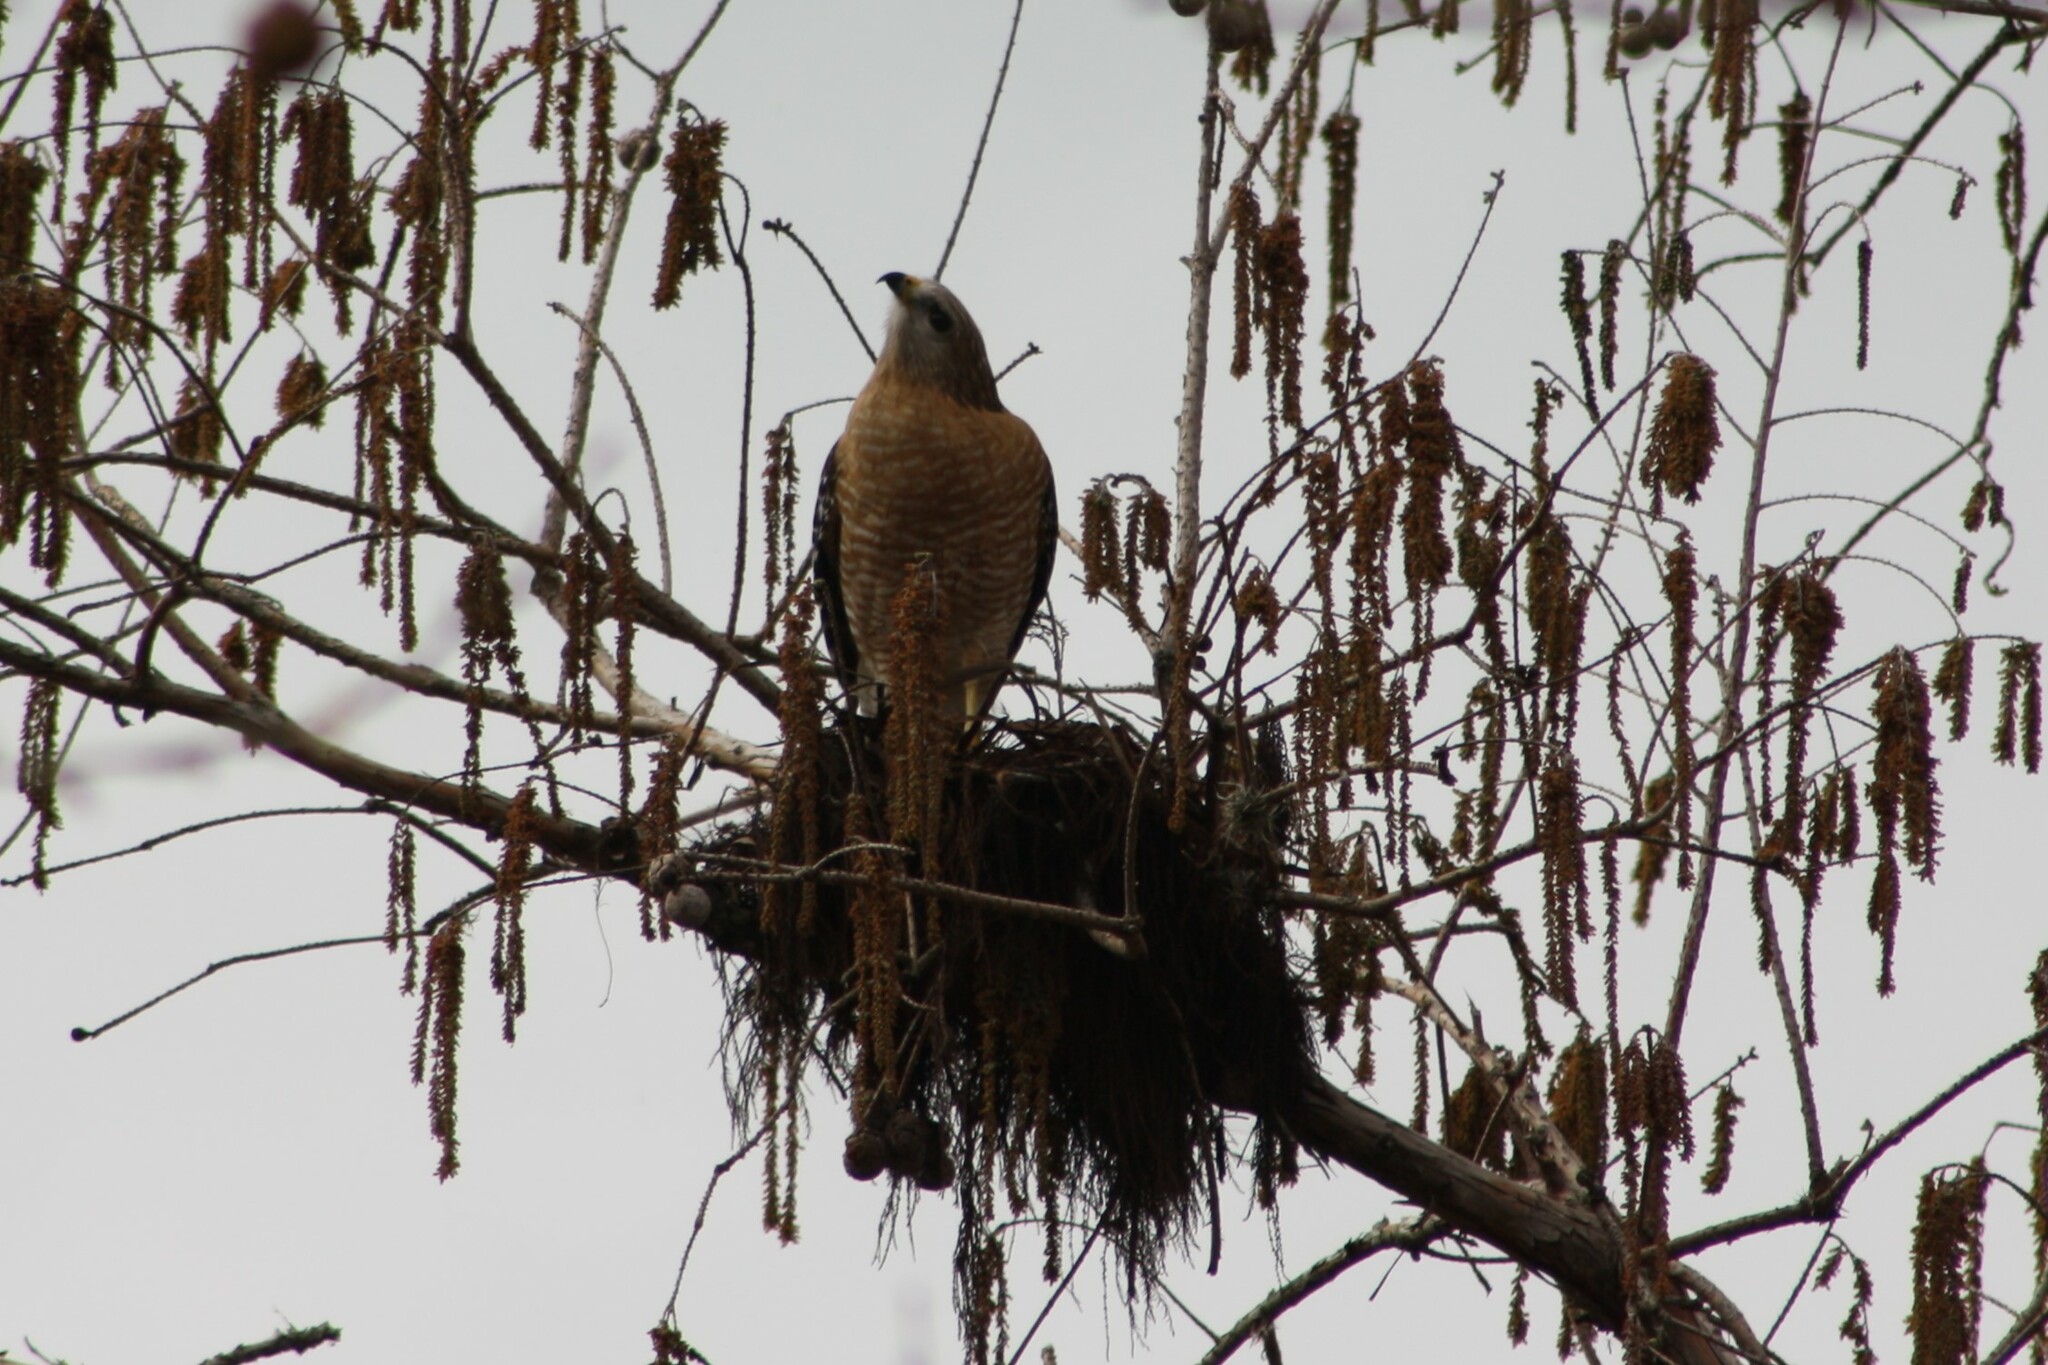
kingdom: Animalia
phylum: Chordata
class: Aves
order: Accipitriformes
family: Accipitridae
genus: Buteo
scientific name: Buteo lineatus
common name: Red-shouldered hawk
